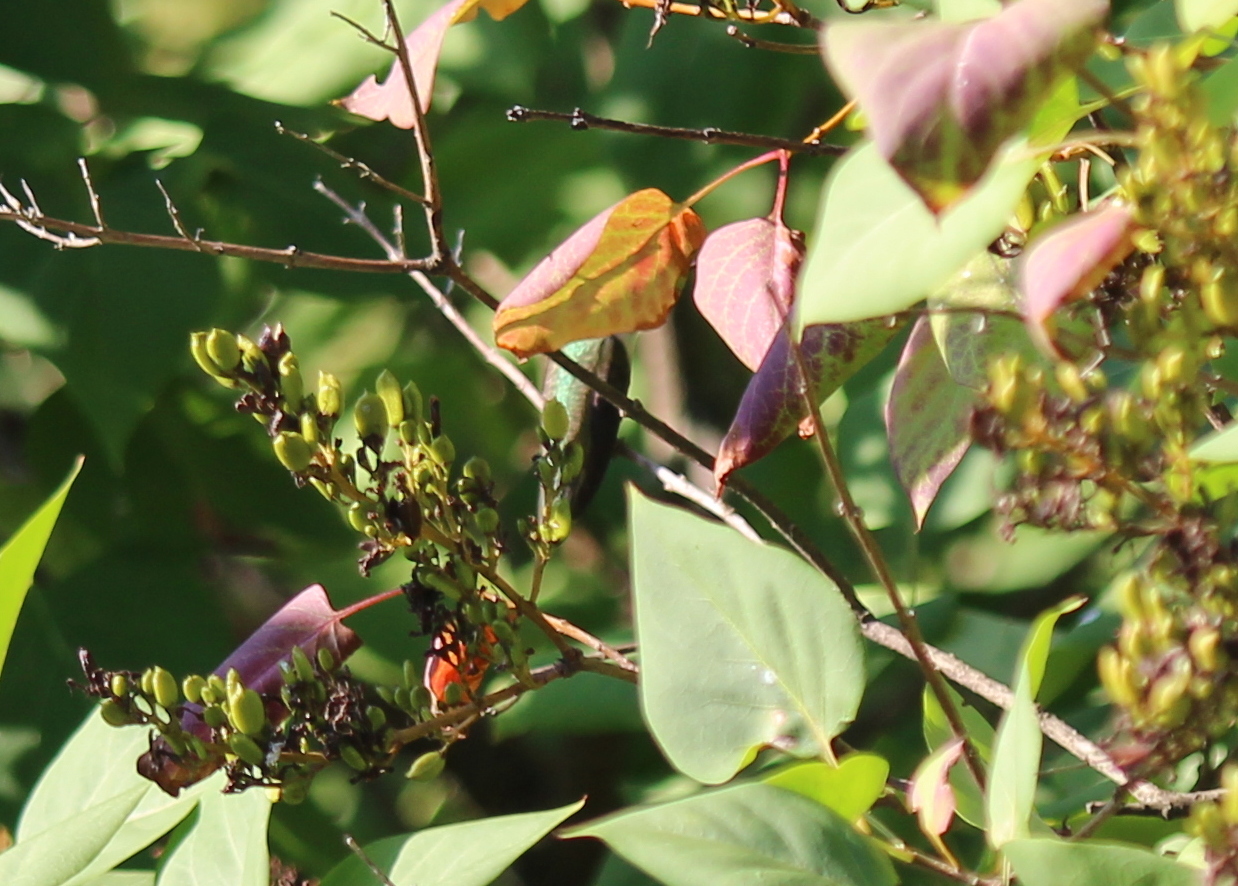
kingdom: Animalia
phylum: Chordata
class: Aves
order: Apodiformes
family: Trochilidae
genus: Archilochus
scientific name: Archilochus colubris
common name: Ruby-throated hummingbird
